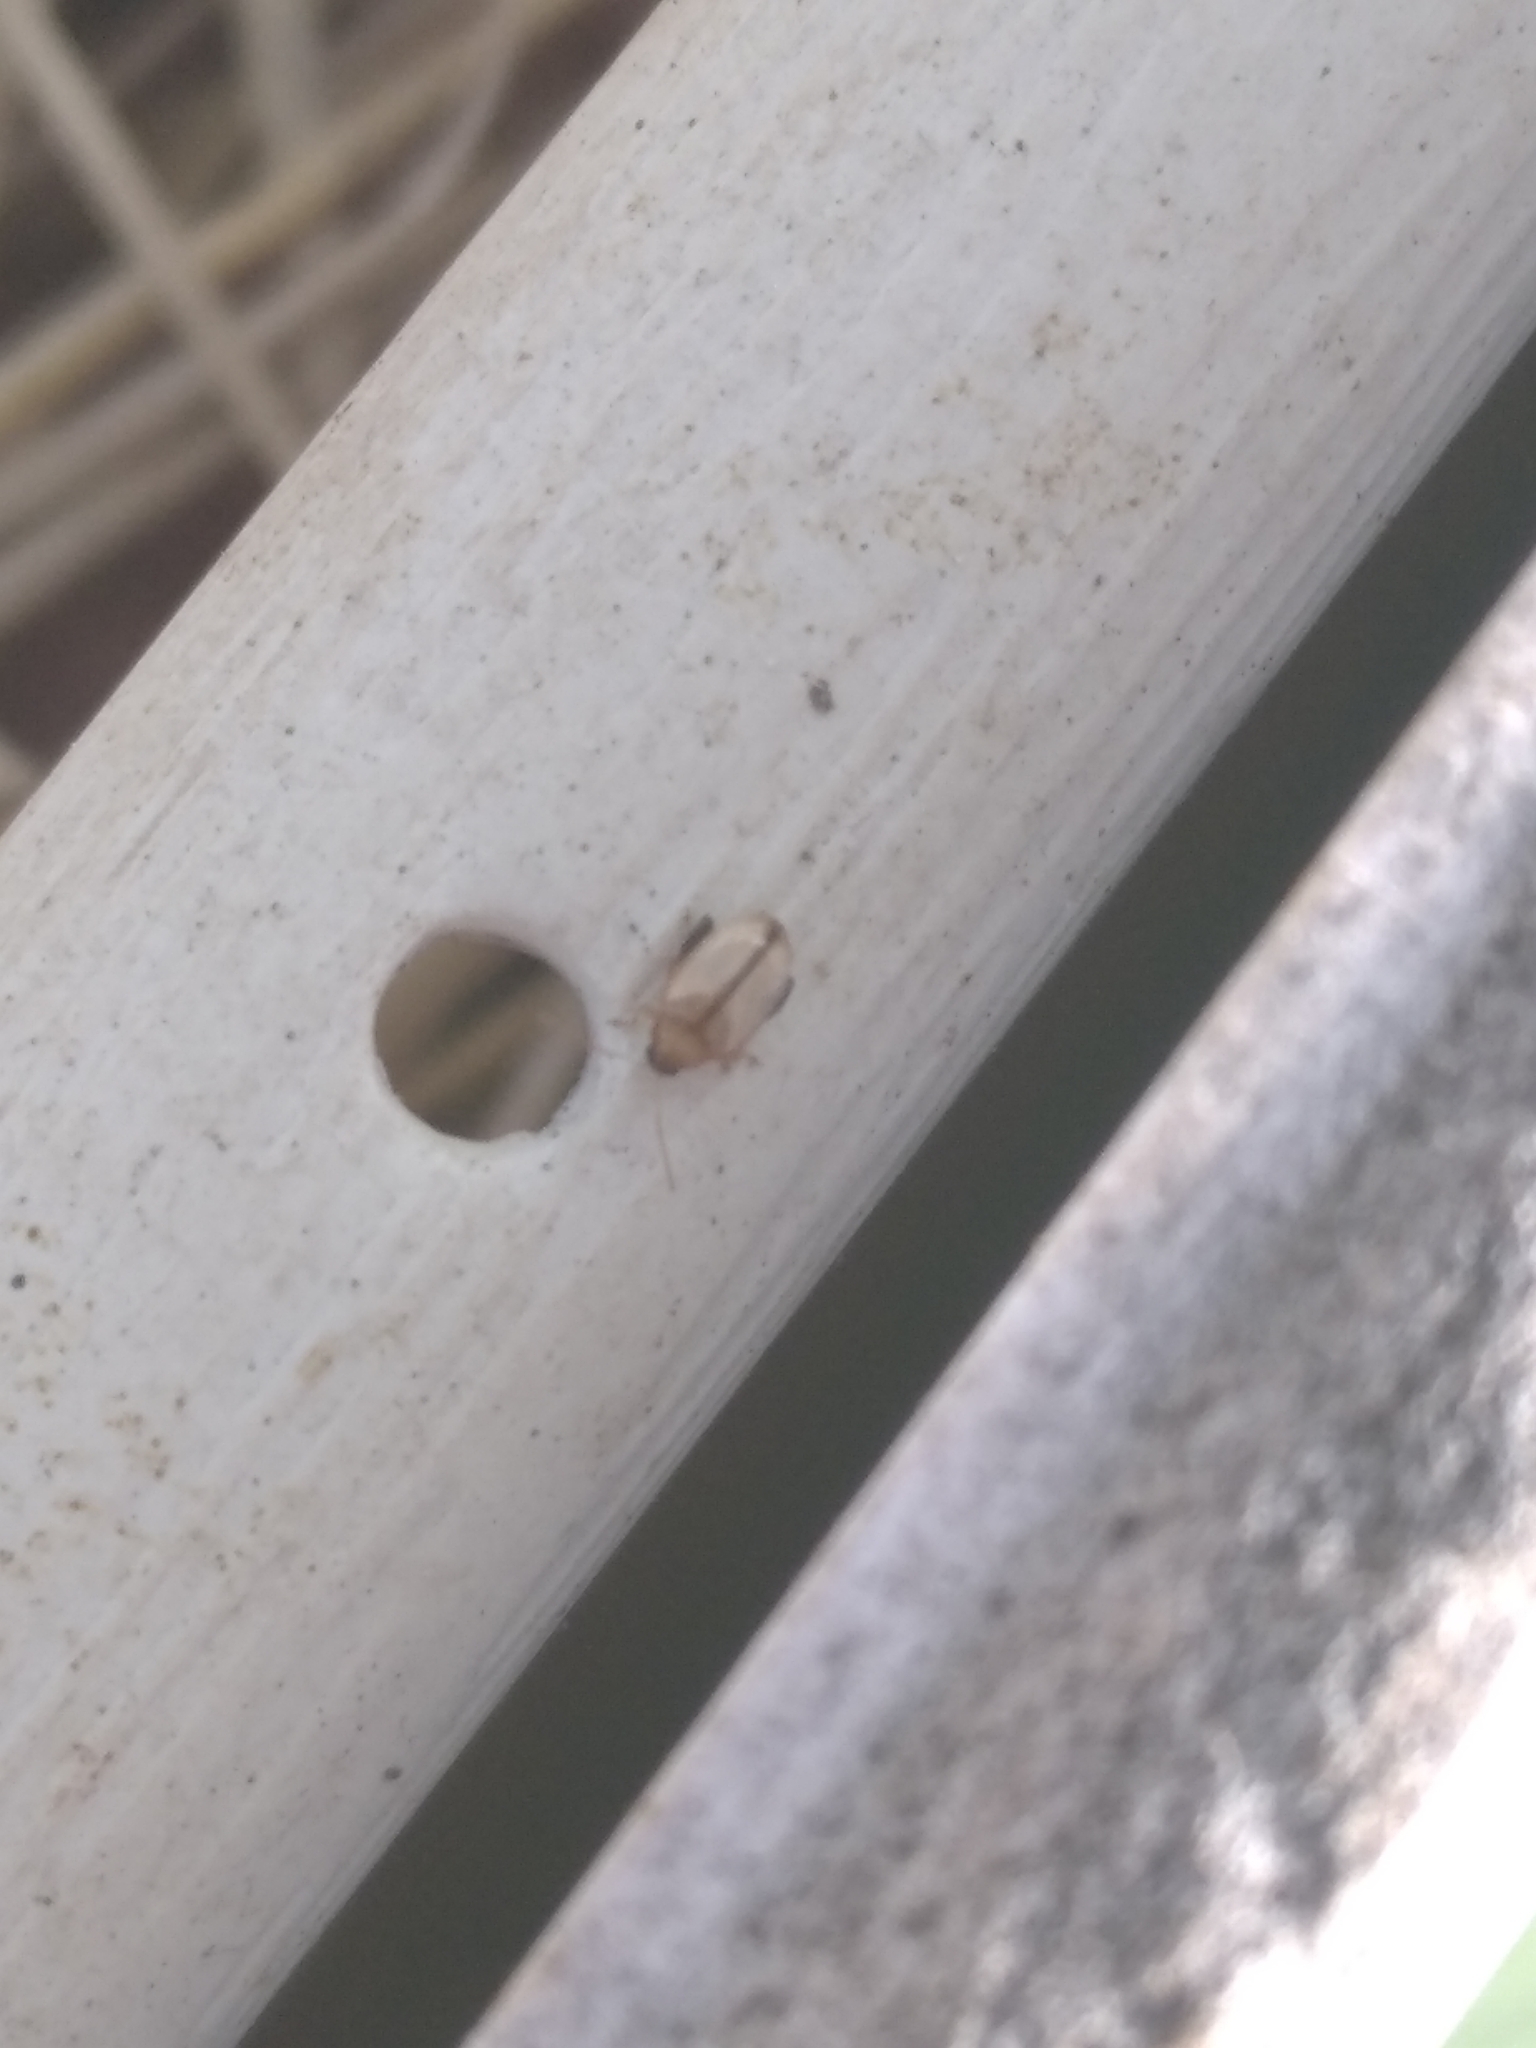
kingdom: Animalia
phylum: Arthropoda
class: Insecta
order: Coleoptera
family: Chrysomelidae
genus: Alticini
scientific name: Alticini
